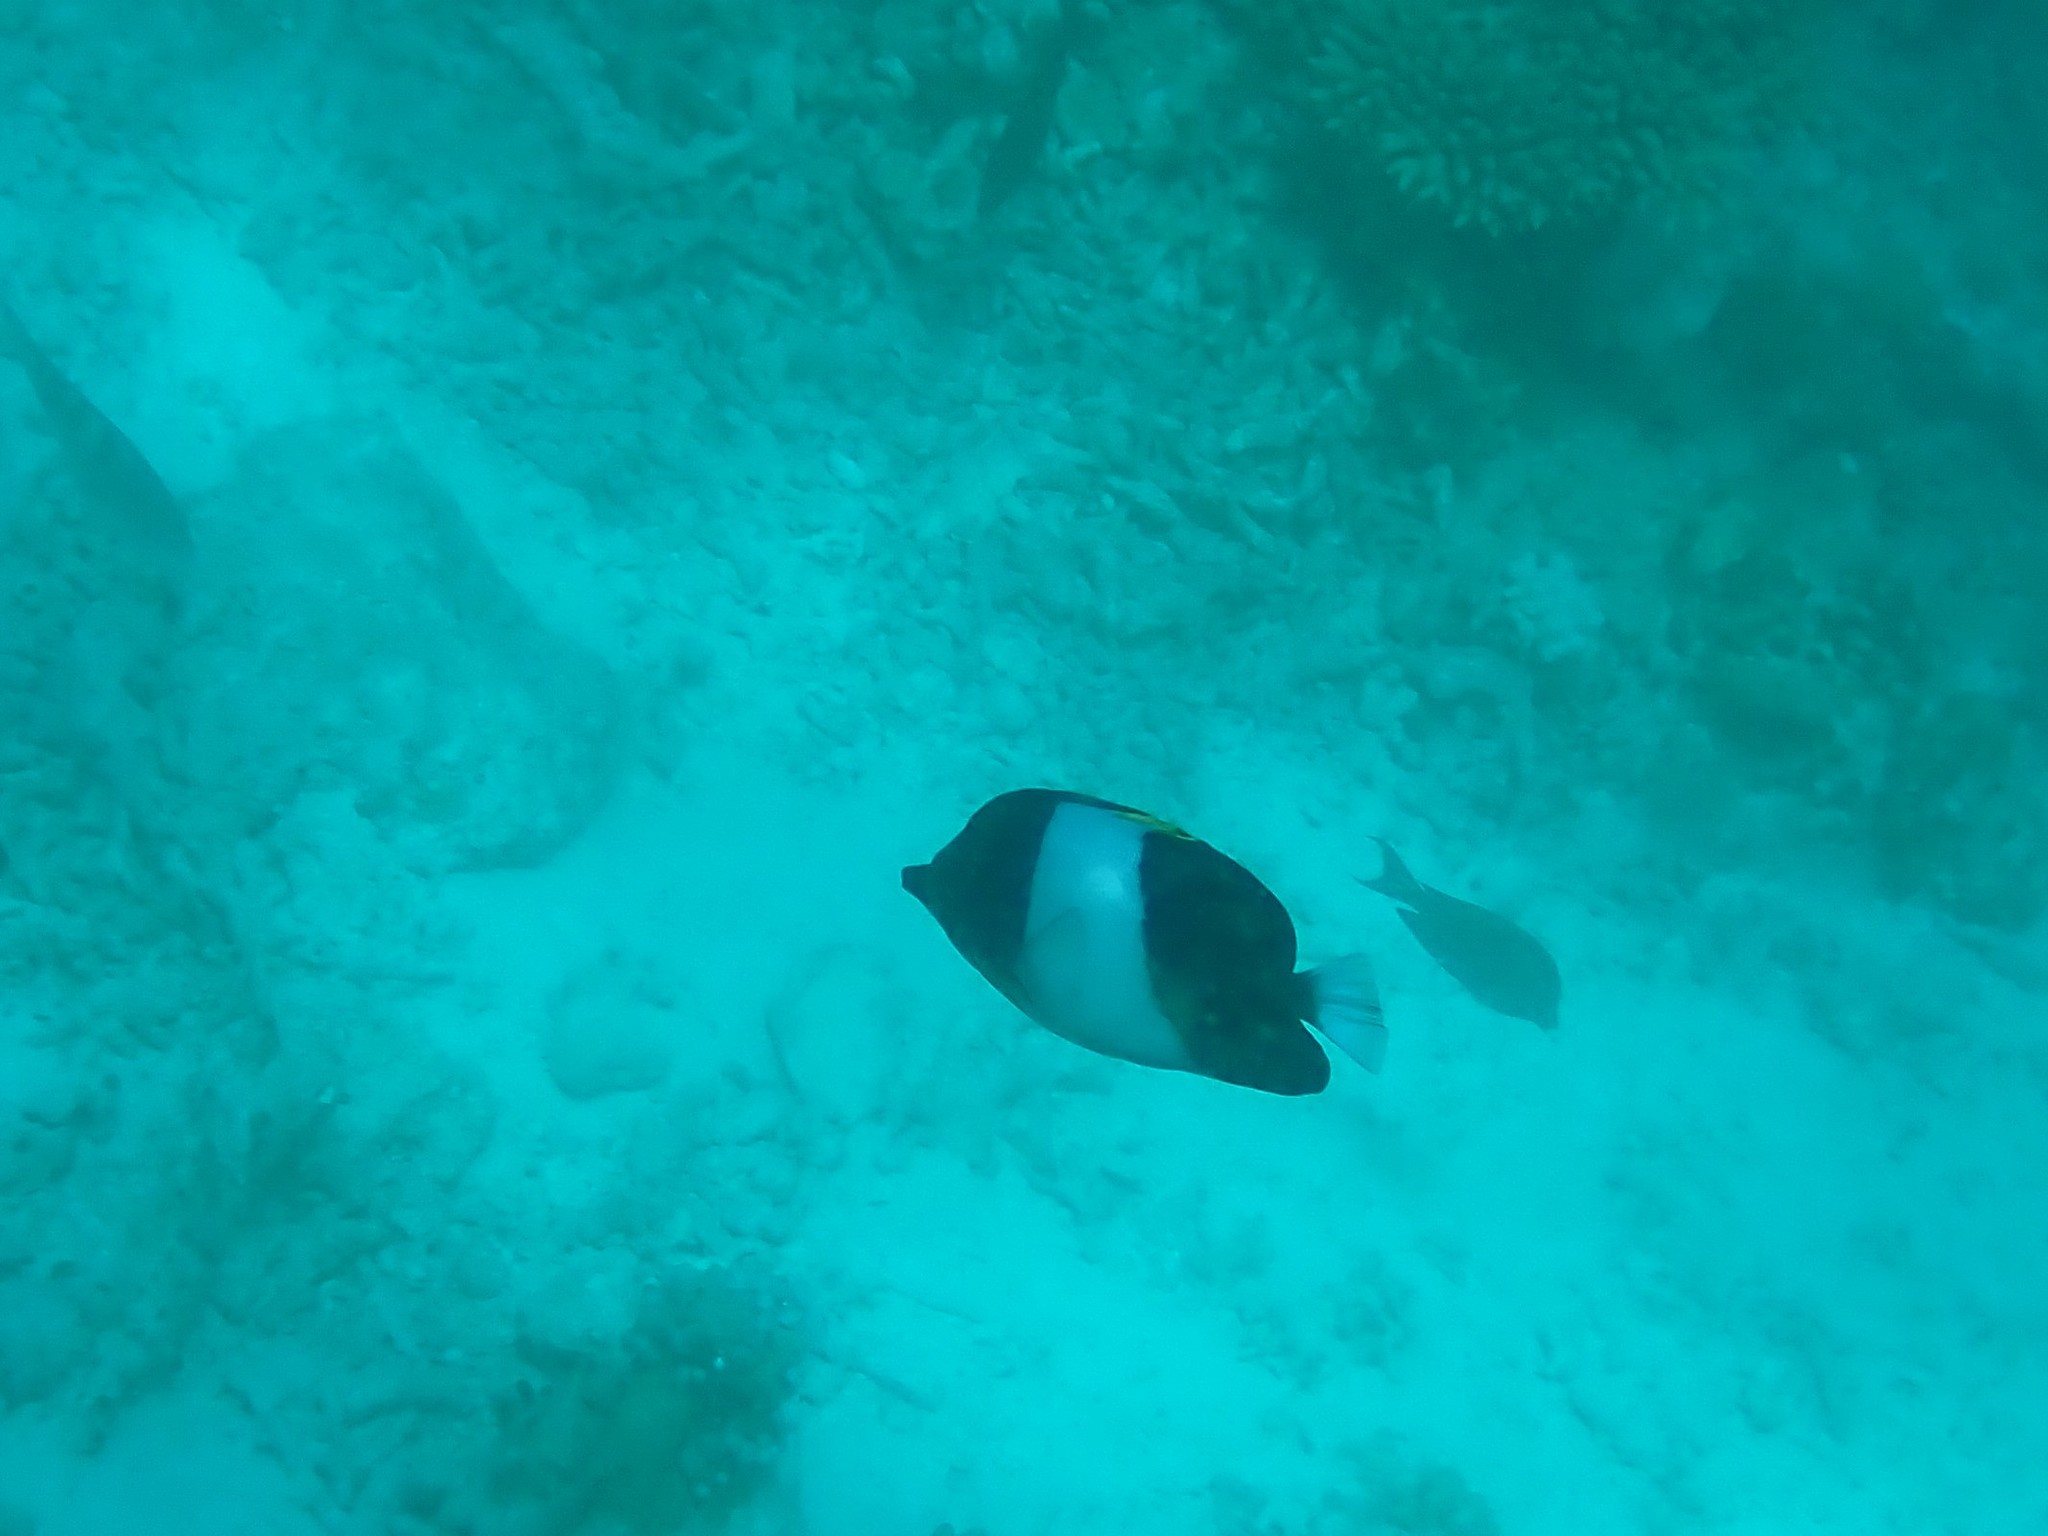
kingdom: Animalia
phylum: Chordata
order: Perciformes
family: Chaetodontidae
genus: Hemitaurichthys
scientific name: Hemitaurichthys zoster
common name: Brown-and-white butterflyfish
